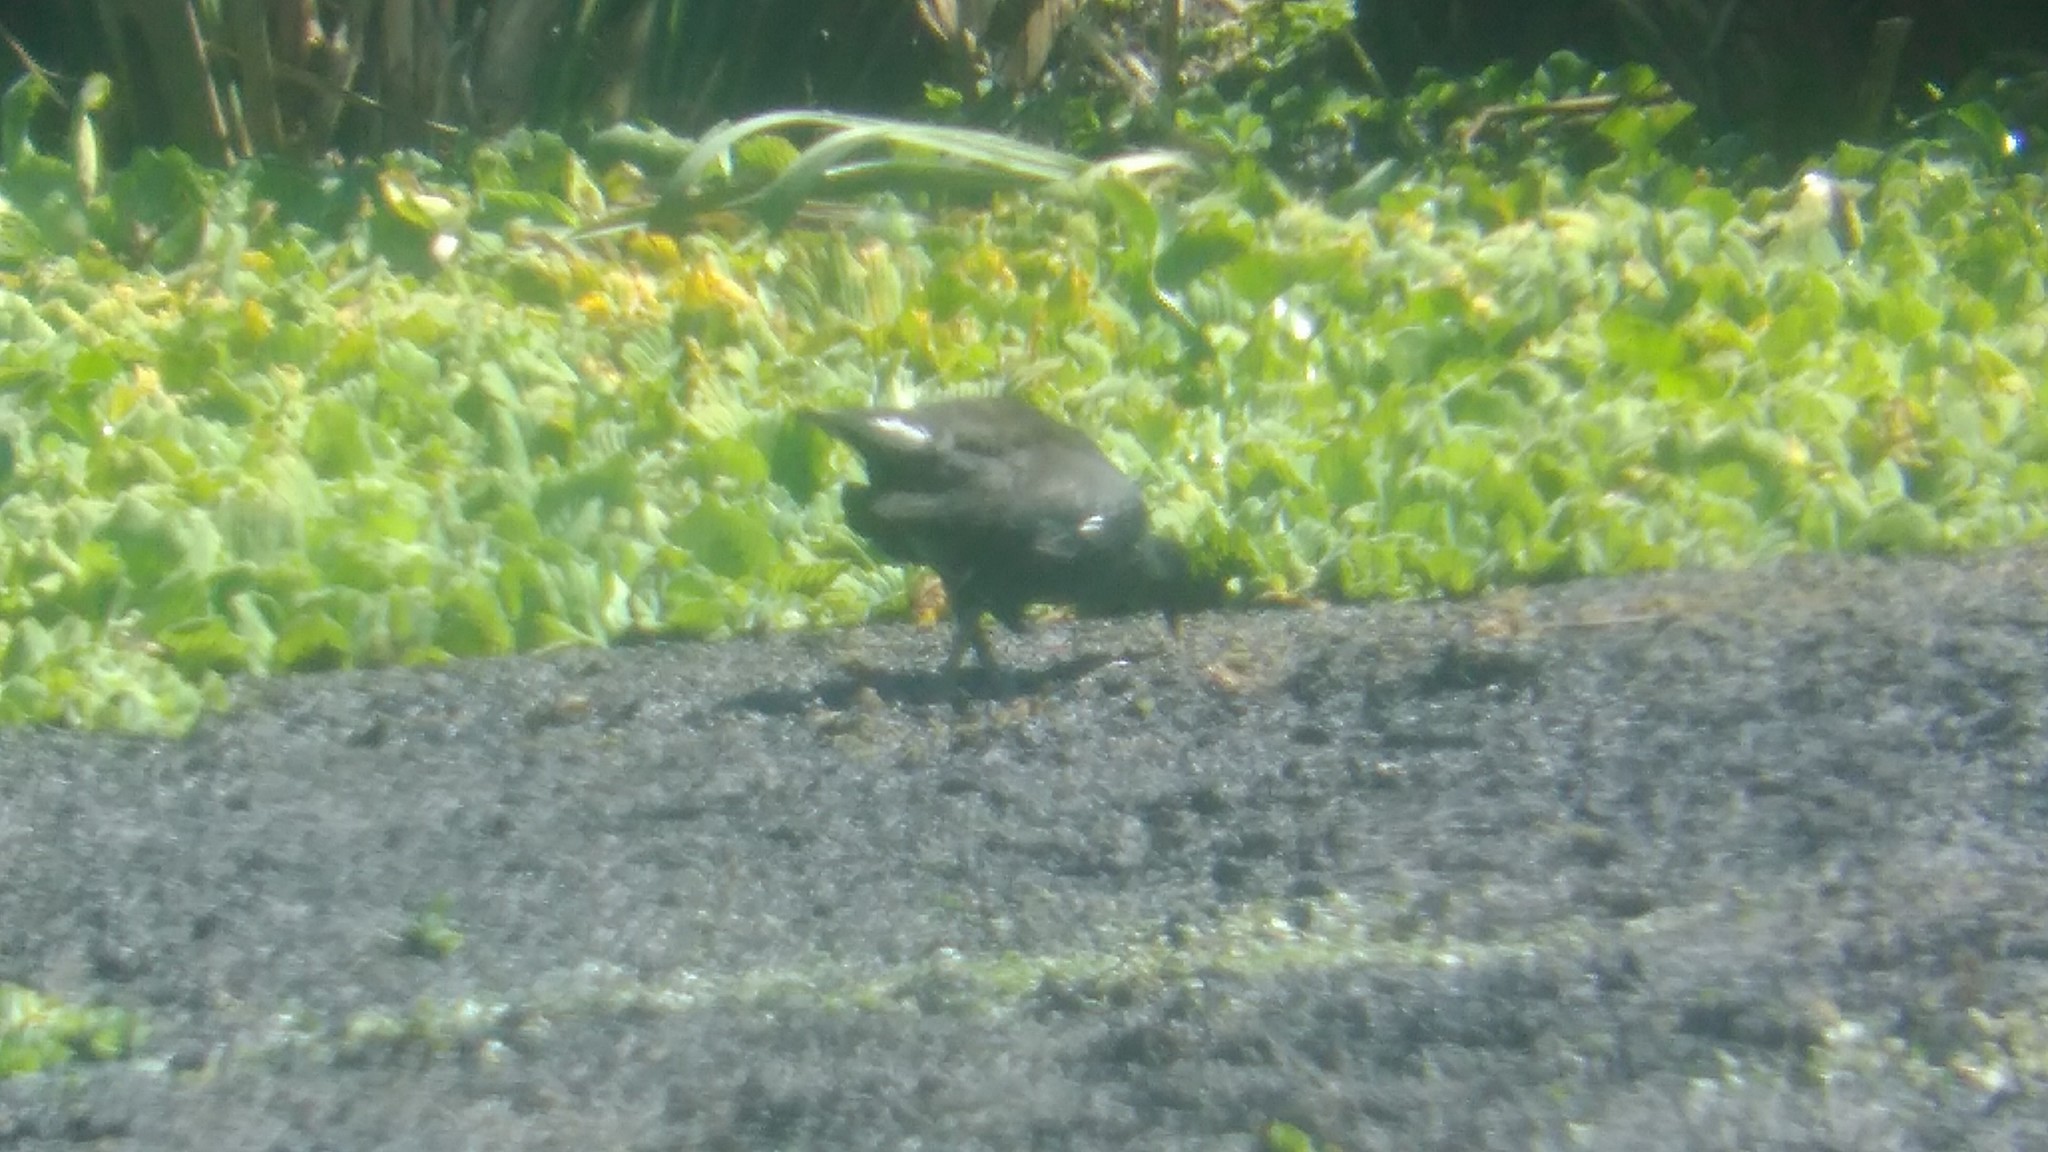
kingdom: Animalia
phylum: Chordata
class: Aves
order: Gruiformes
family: Rallidae
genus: Gallinula
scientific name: Gallinula chloropus
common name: Common moorhen
